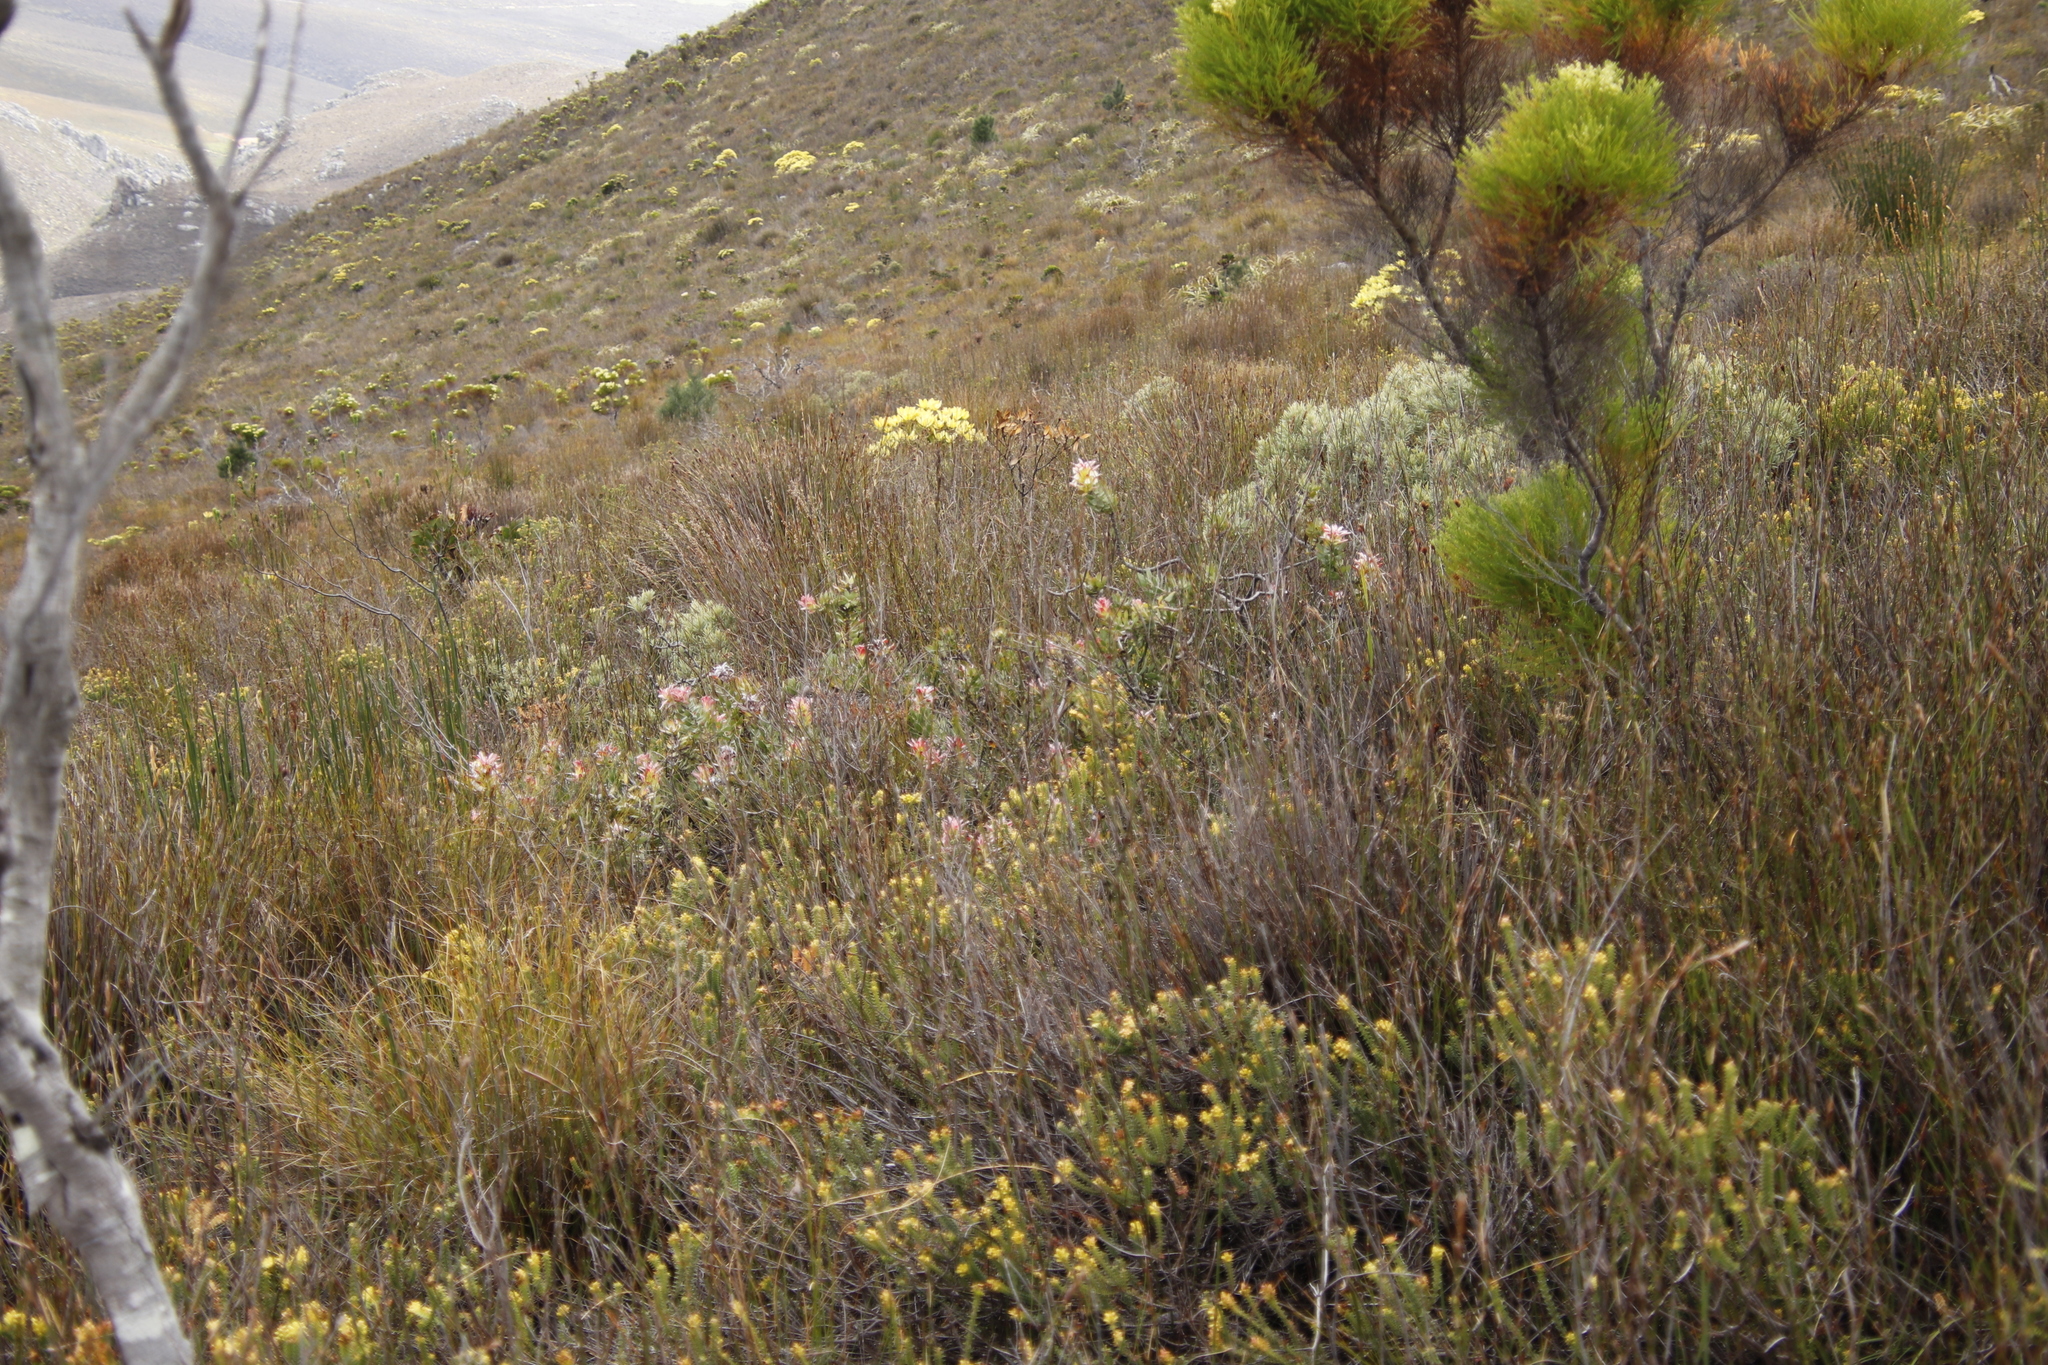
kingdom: Plantae
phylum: Tracheophyta
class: Magnoliopsida
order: Proteales
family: Proteaceae
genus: Mimetes
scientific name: Mimetes cucullatus
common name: Common pagoda
